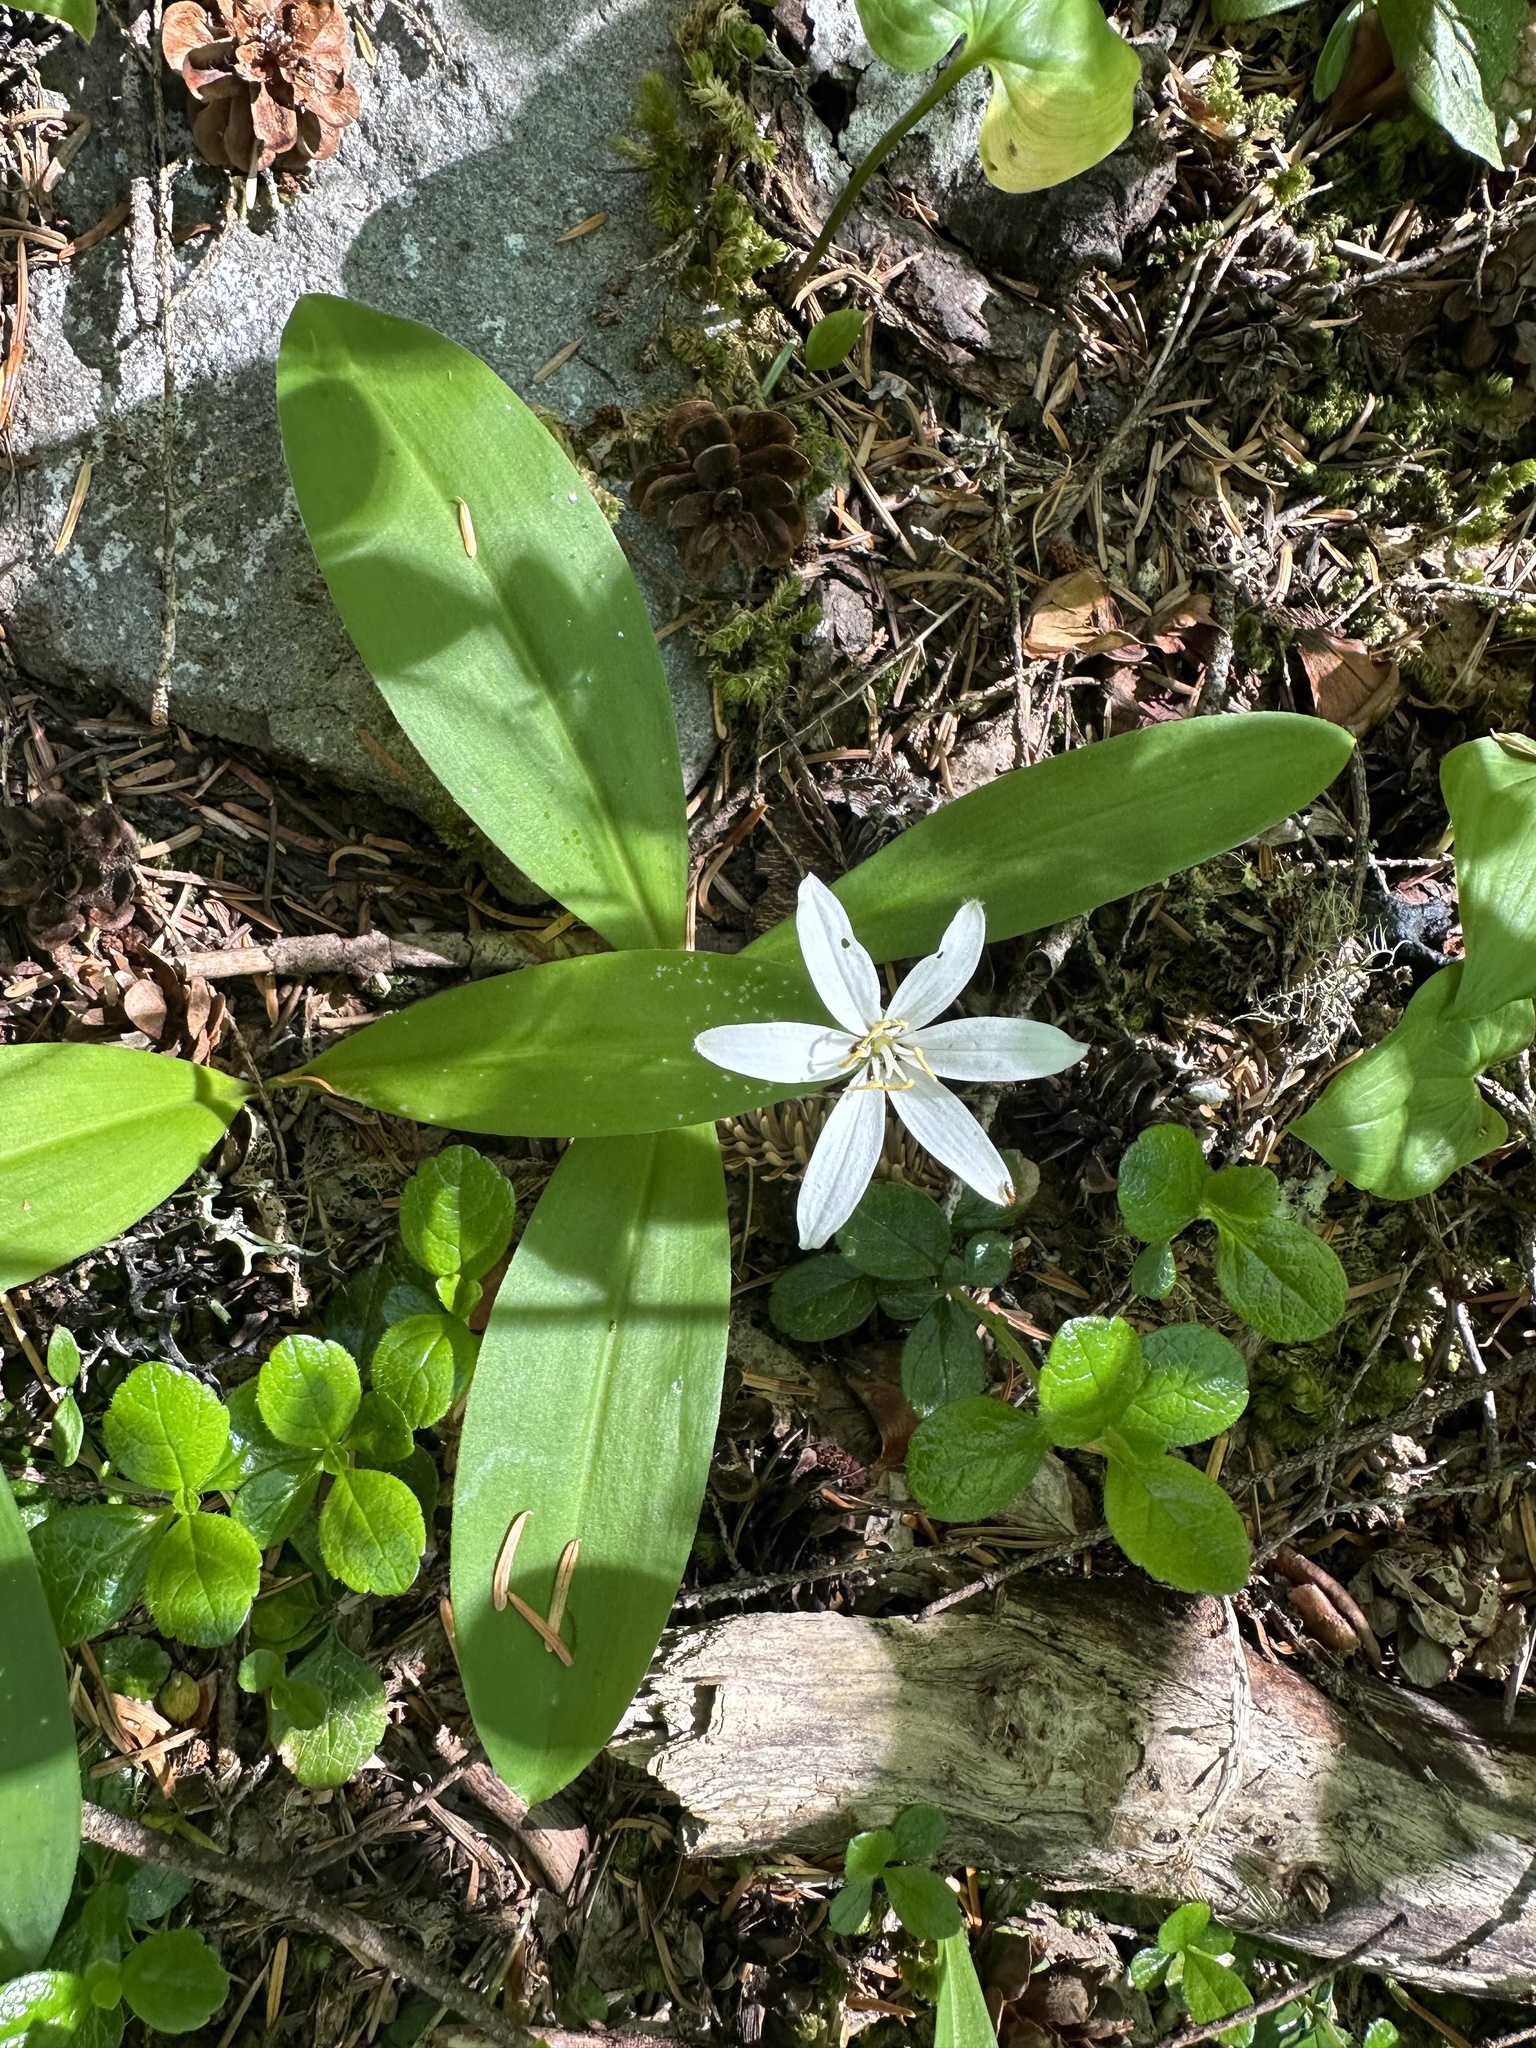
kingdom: Plantae
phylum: Tracheophyta
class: Liliopsida
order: Liliales
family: Liliaceae
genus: Clintonia
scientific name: Clintonia uniflora
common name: Queen's cup
